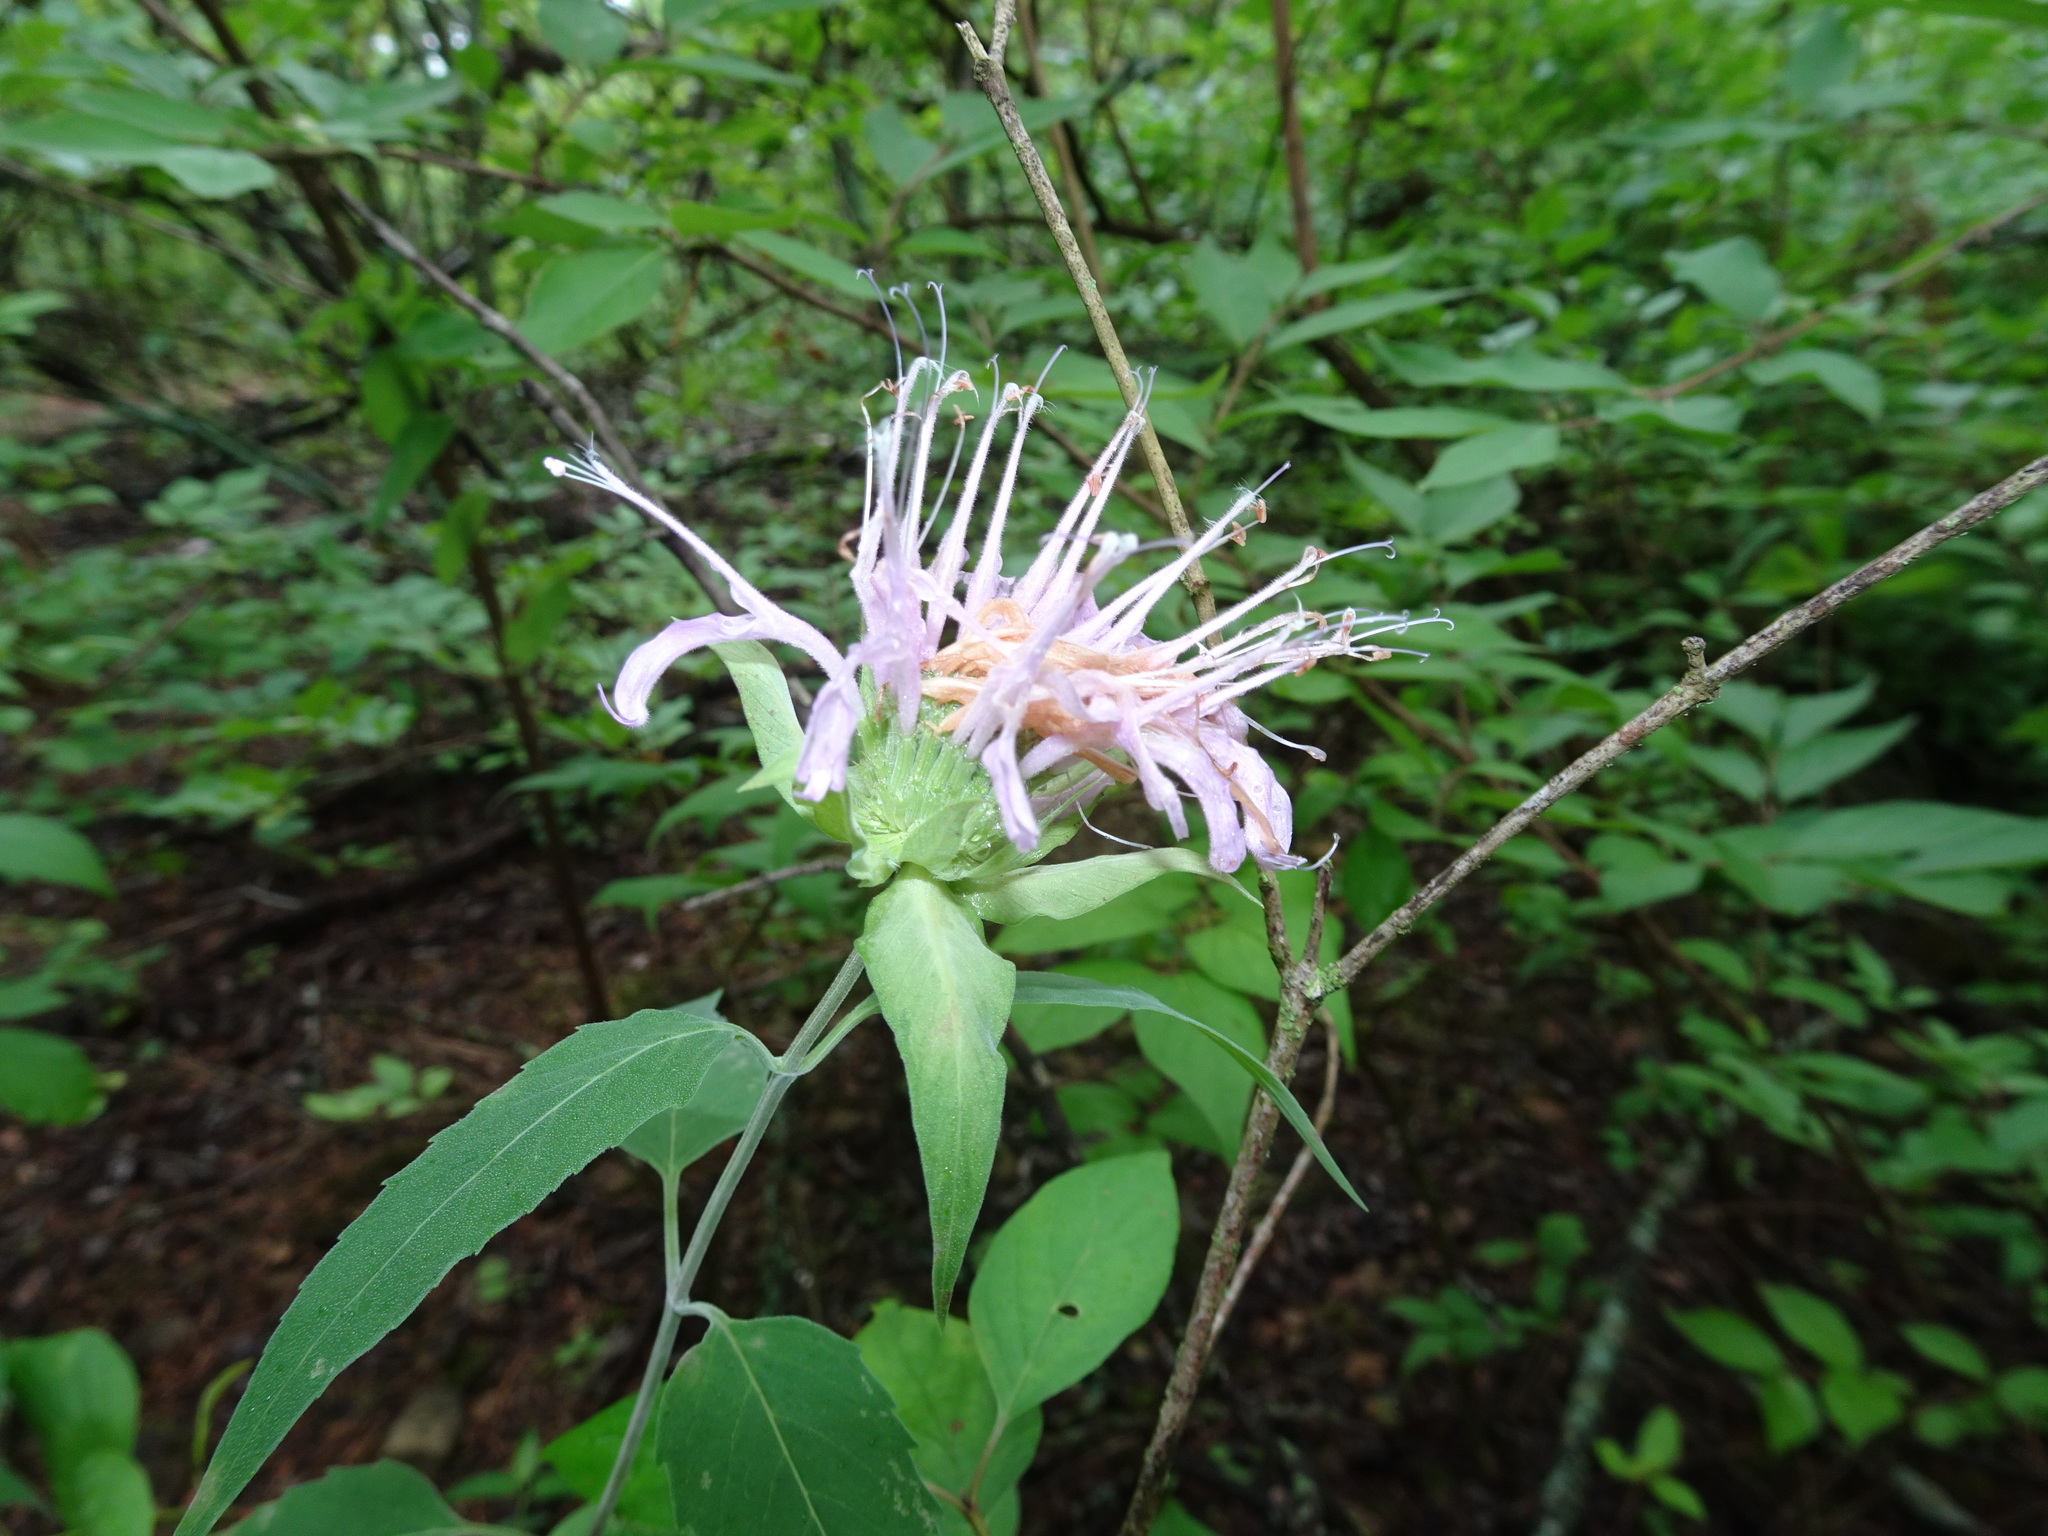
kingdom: Plantae
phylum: Tracheophyta
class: Magnoliopsida
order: Lamiales
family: Lamiaceae
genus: Monarda
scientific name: Monarda fistulosa
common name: Purple beebalm
